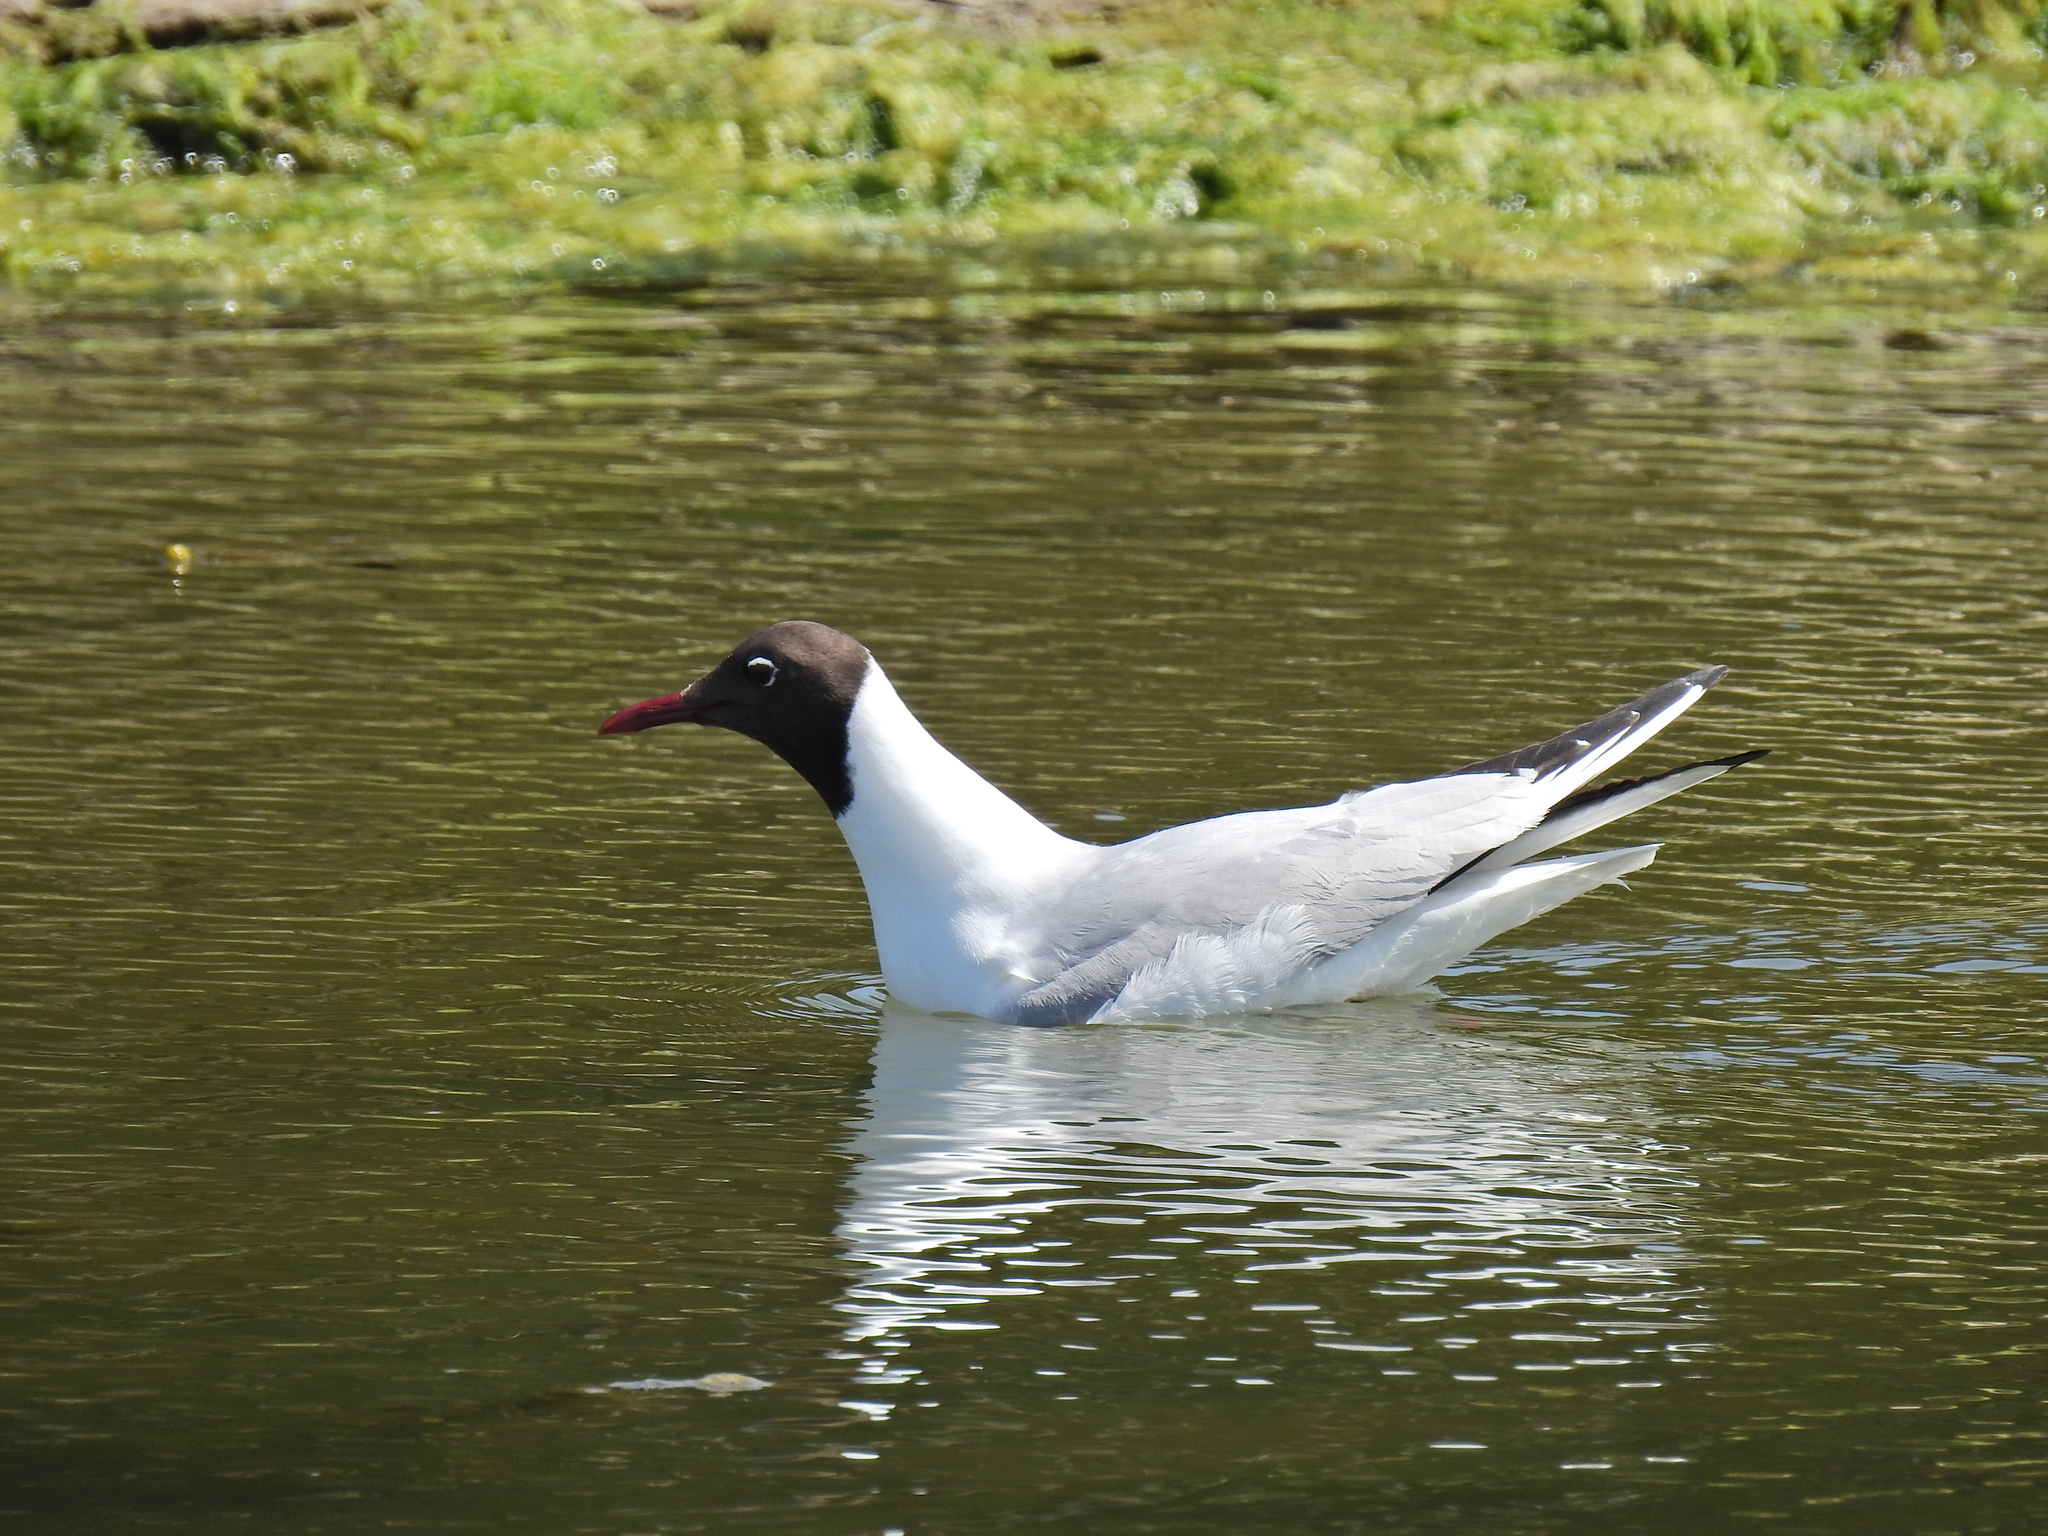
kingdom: Animalia
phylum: Chordata
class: Aves
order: Charadriiformes
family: Laridae
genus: Chroicocephalus
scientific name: Chroicocephalus ridibundus
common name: Black-headed gull
